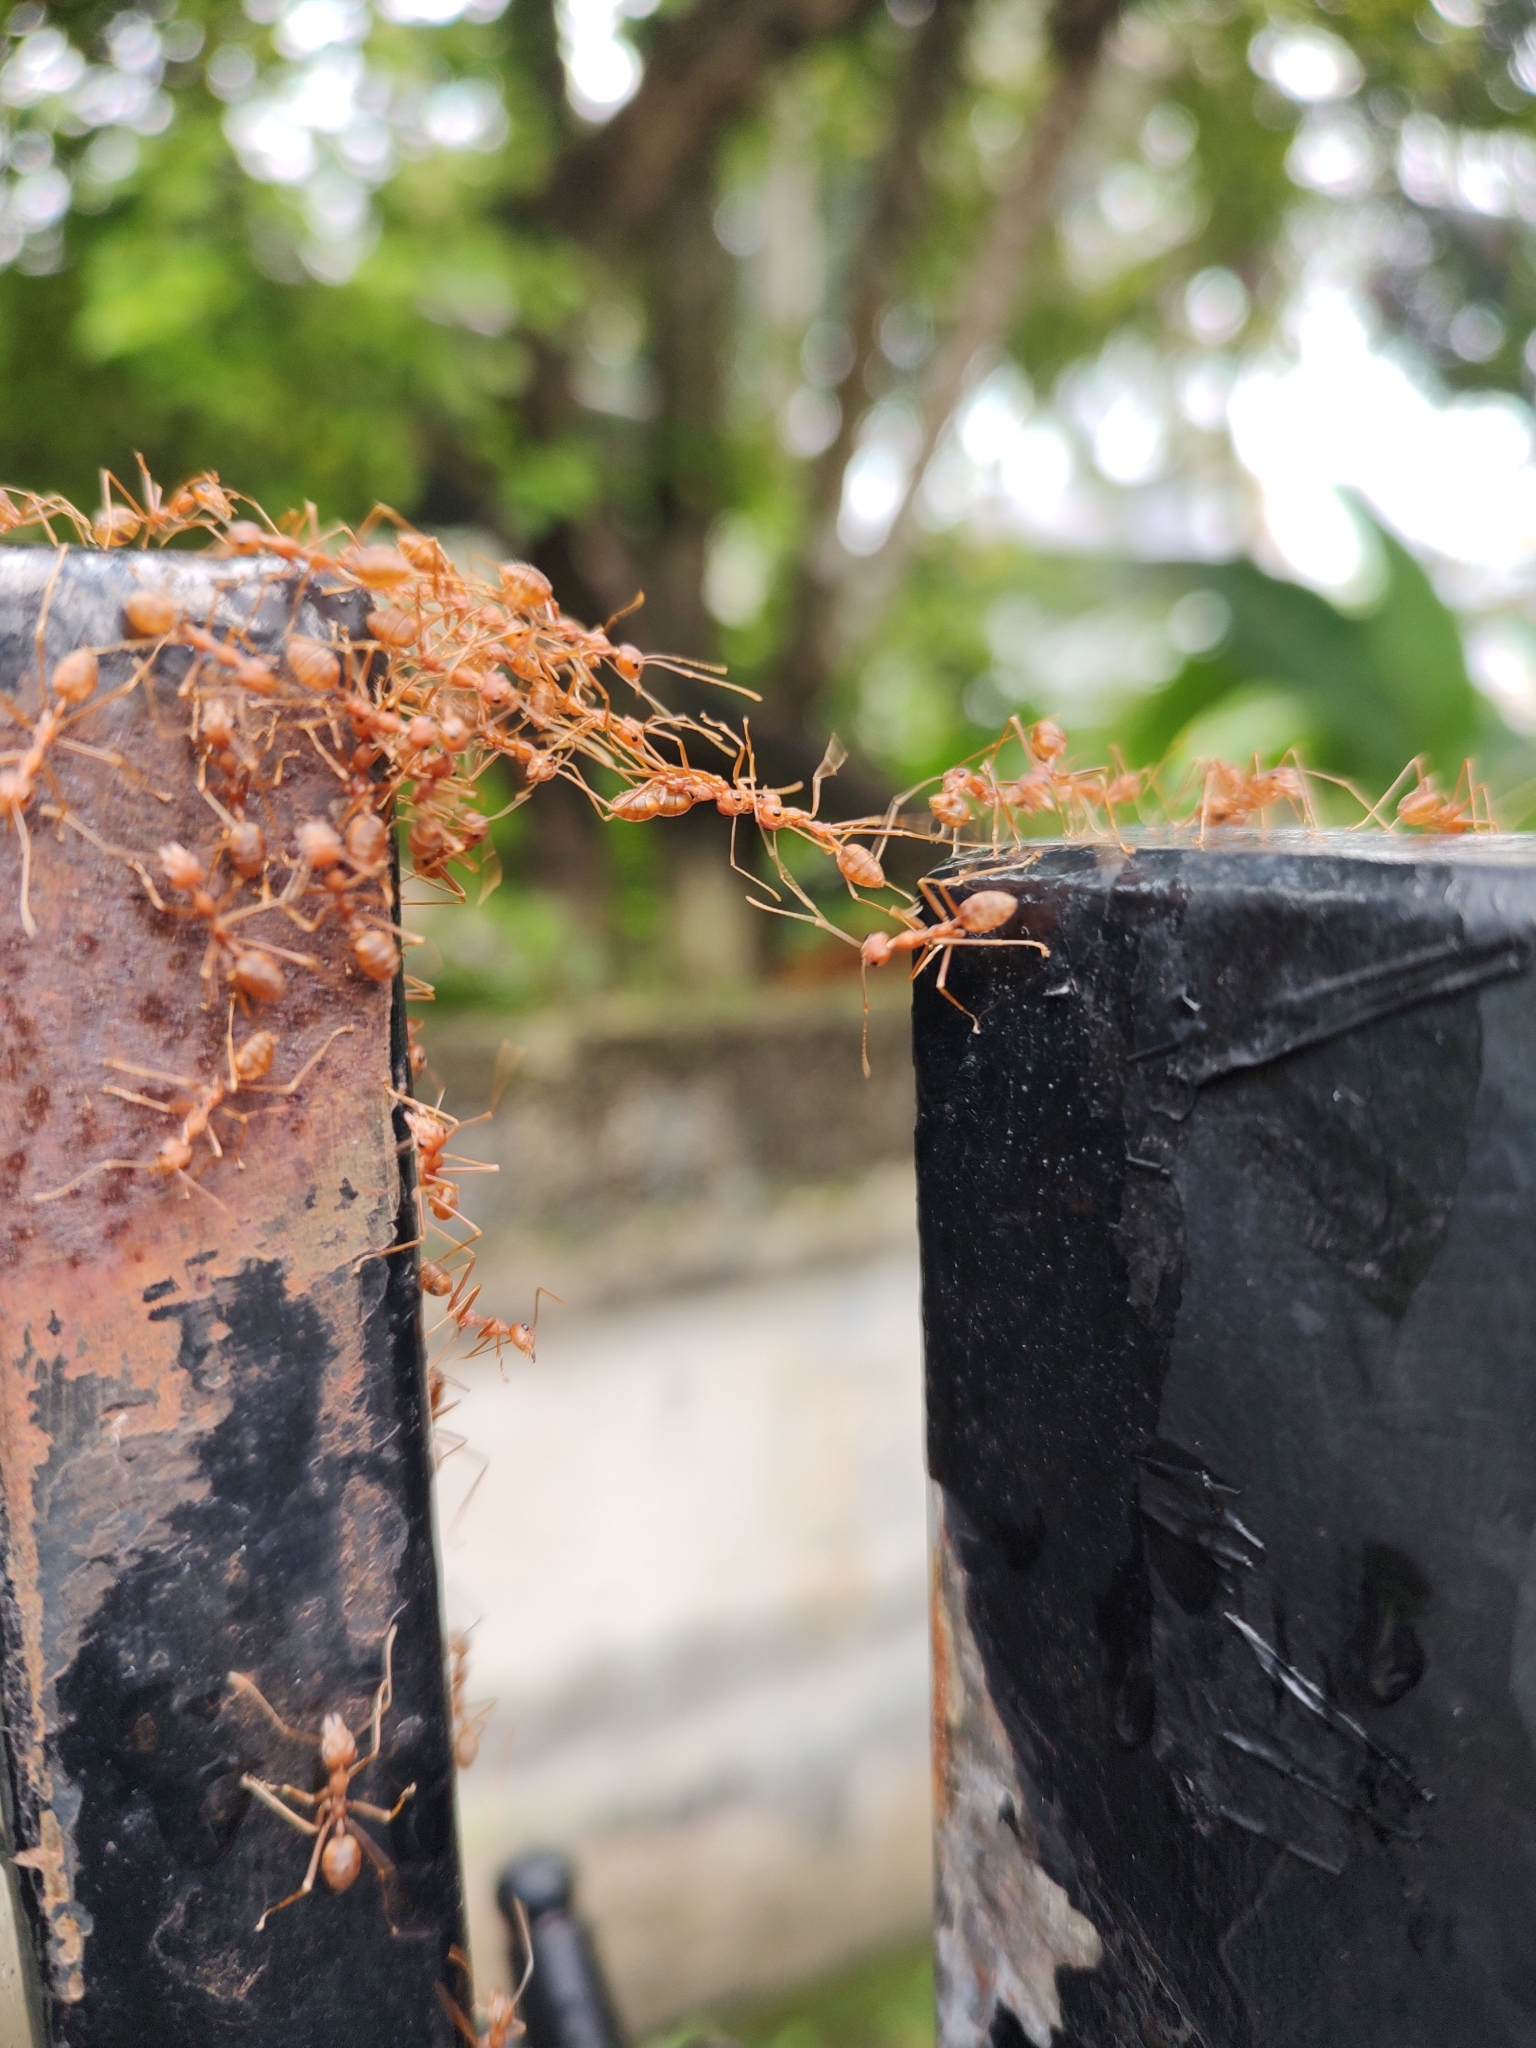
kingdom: Animalia
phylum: Arthropoda
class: Insecta
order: Hymenoptera
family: Formicidae
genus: Oecophylla
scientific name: Oecophylla smaragdina
